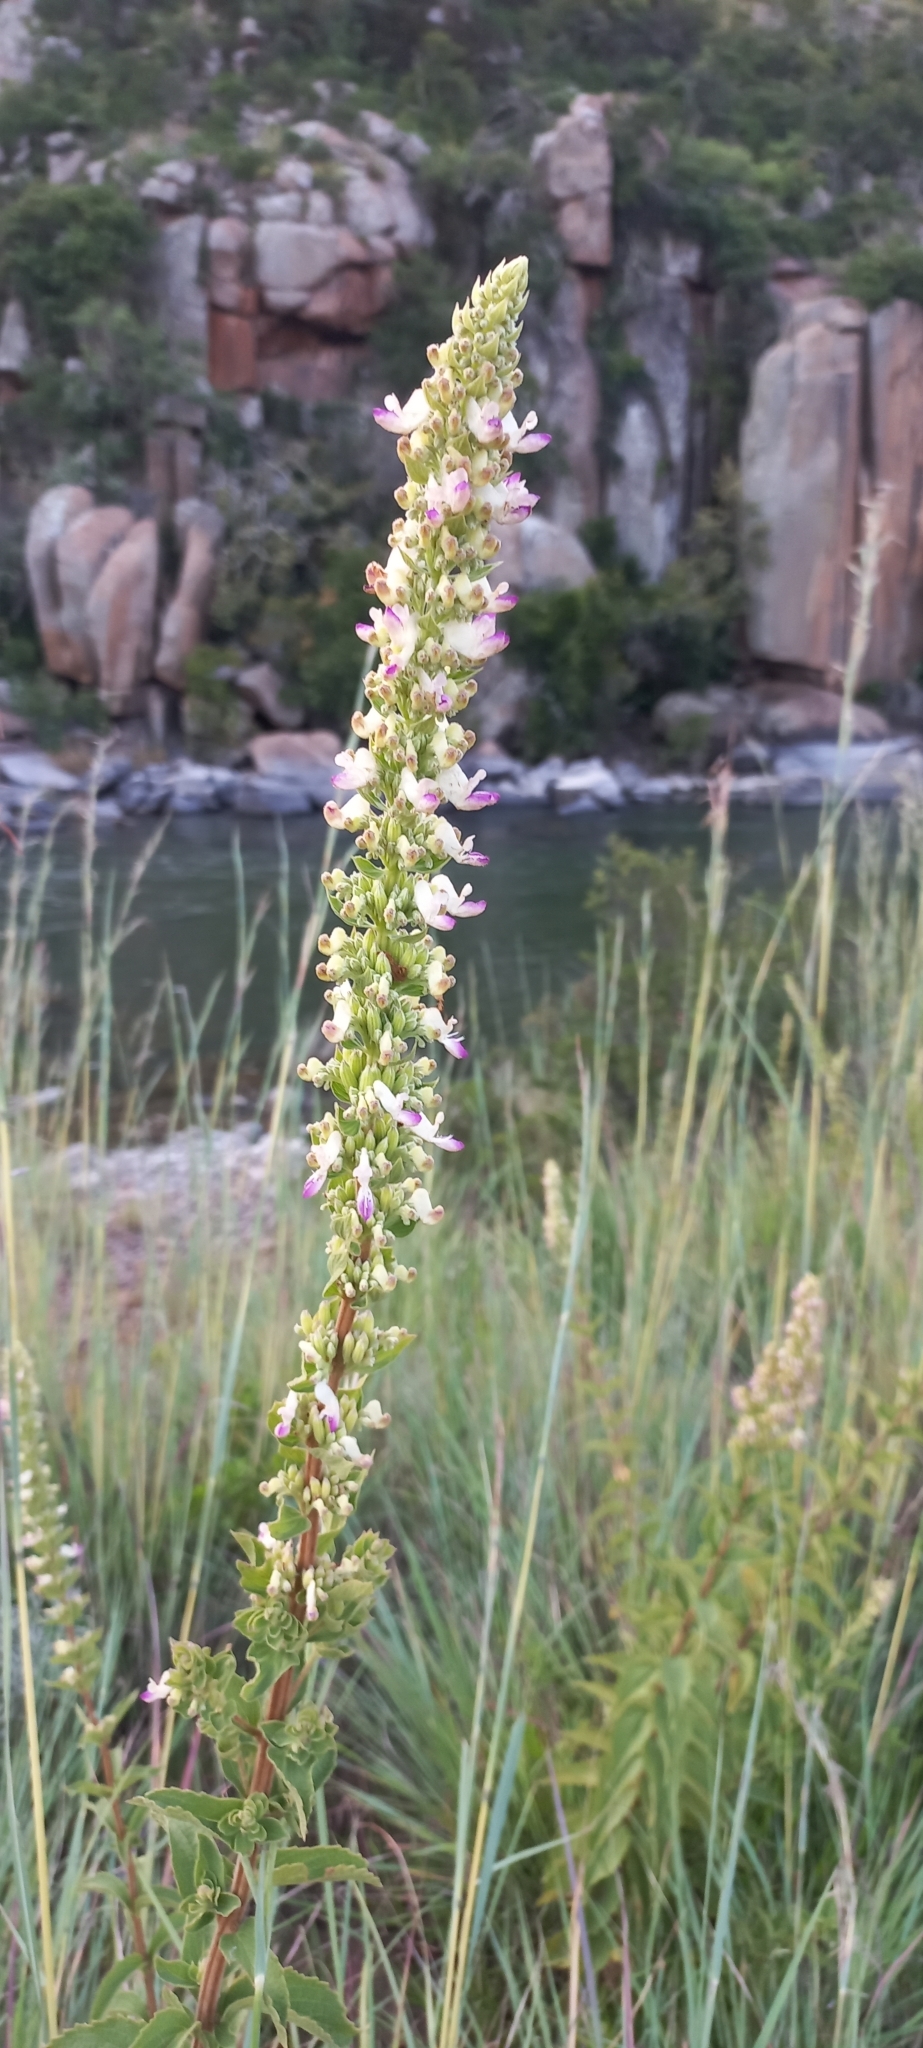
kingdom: Plantae
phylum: Tracheophyta
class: Magnoliopsida
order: Lamiales
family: Lamiaceae
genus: Coleus
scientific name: Coleus calycinus
